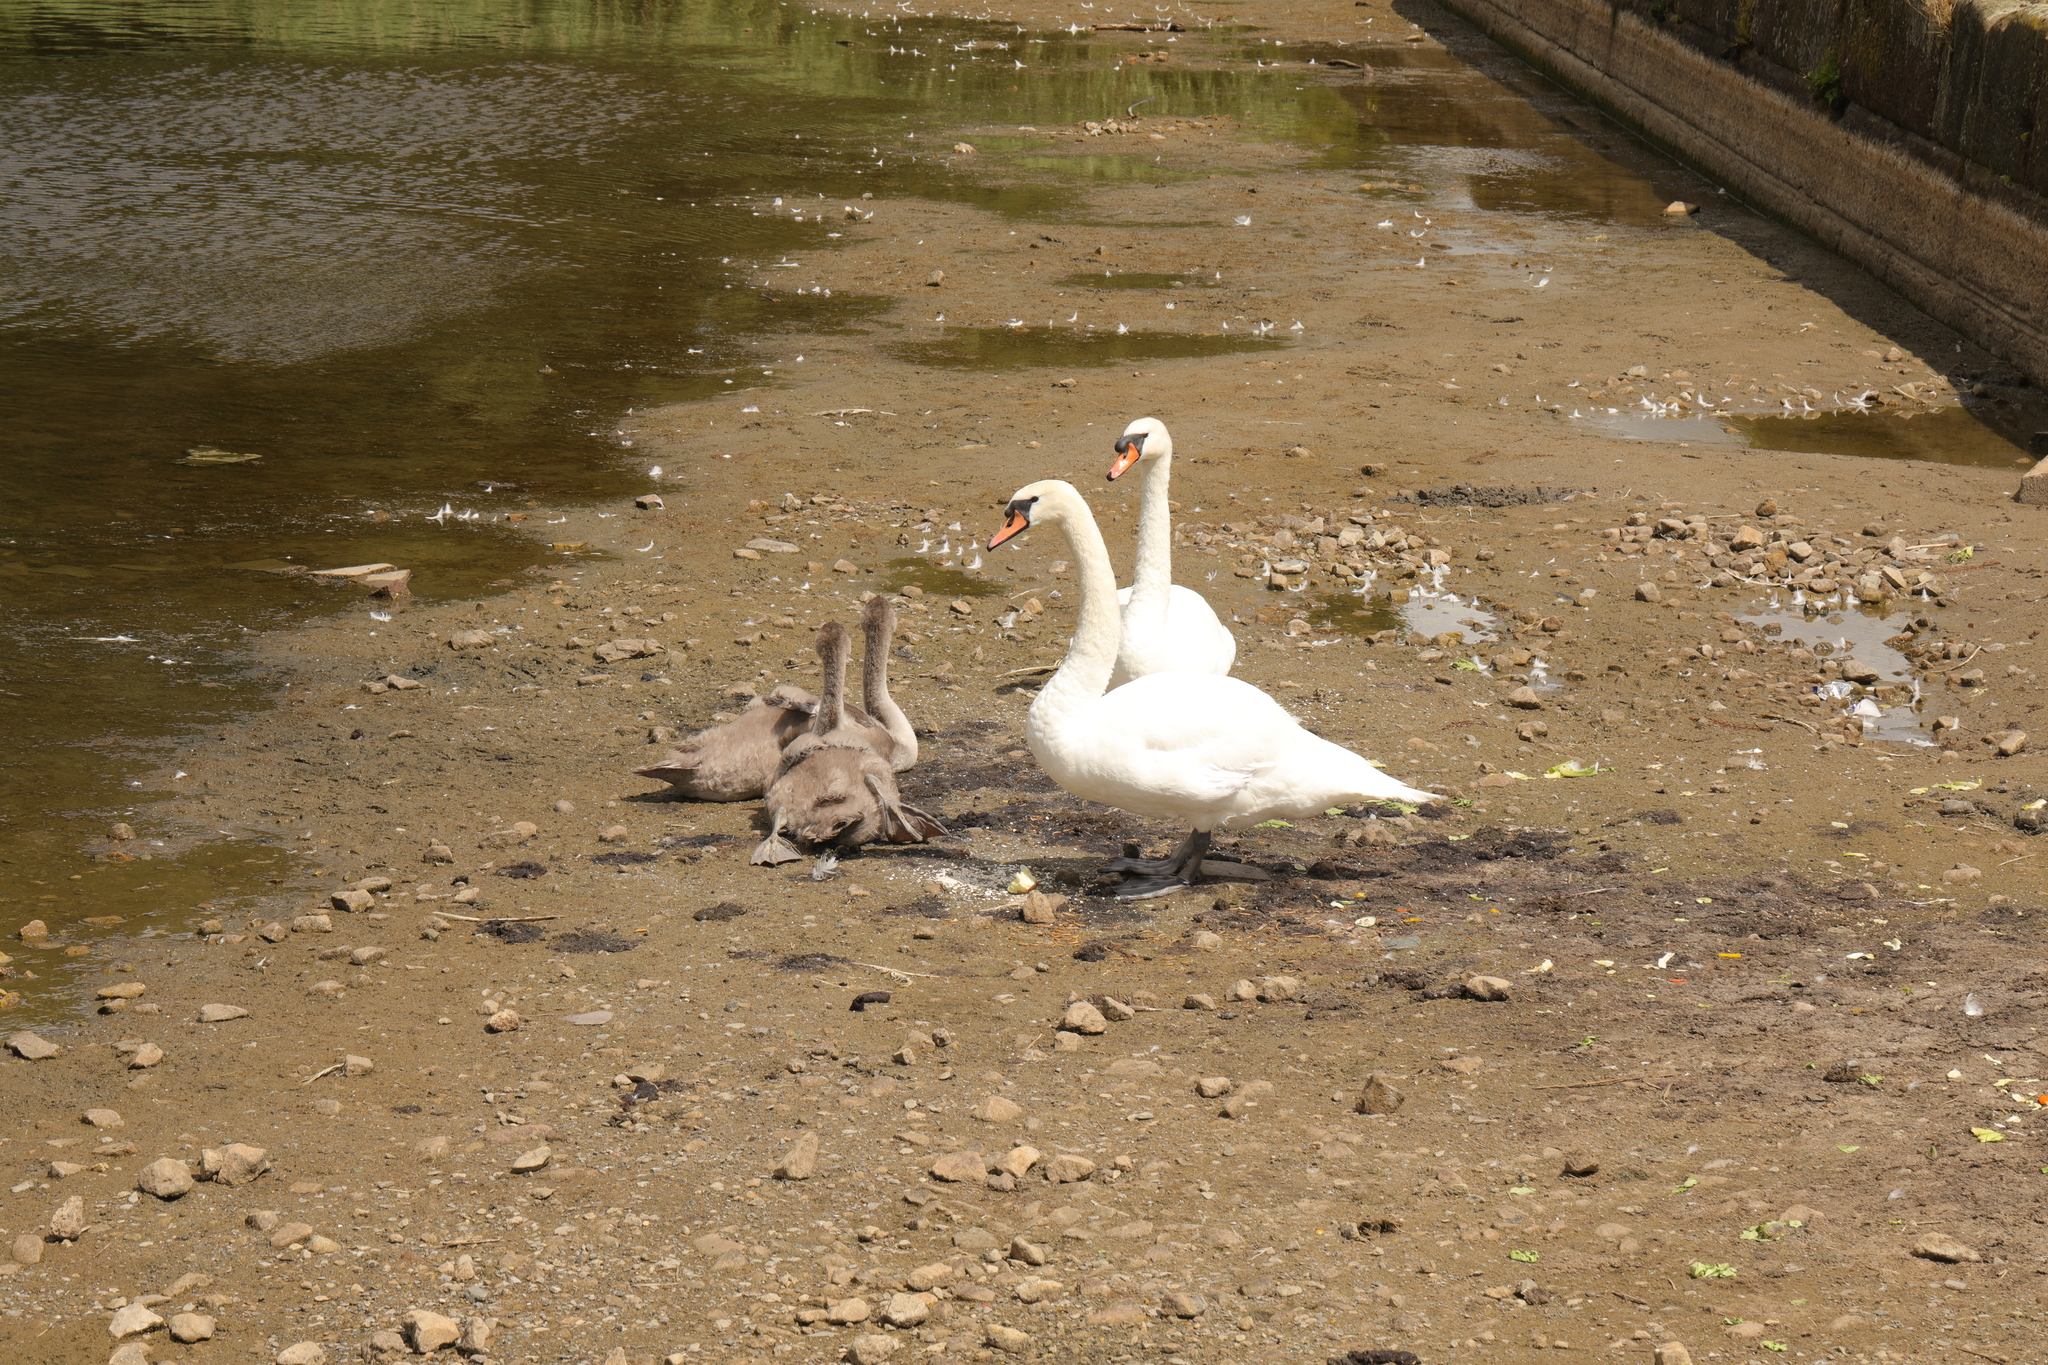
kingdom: Animalia
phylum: Chordata
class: Aves
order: Anseriformes
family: Anatidae
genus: Cygnus
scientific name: Cygnus olor
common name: Mute swan
